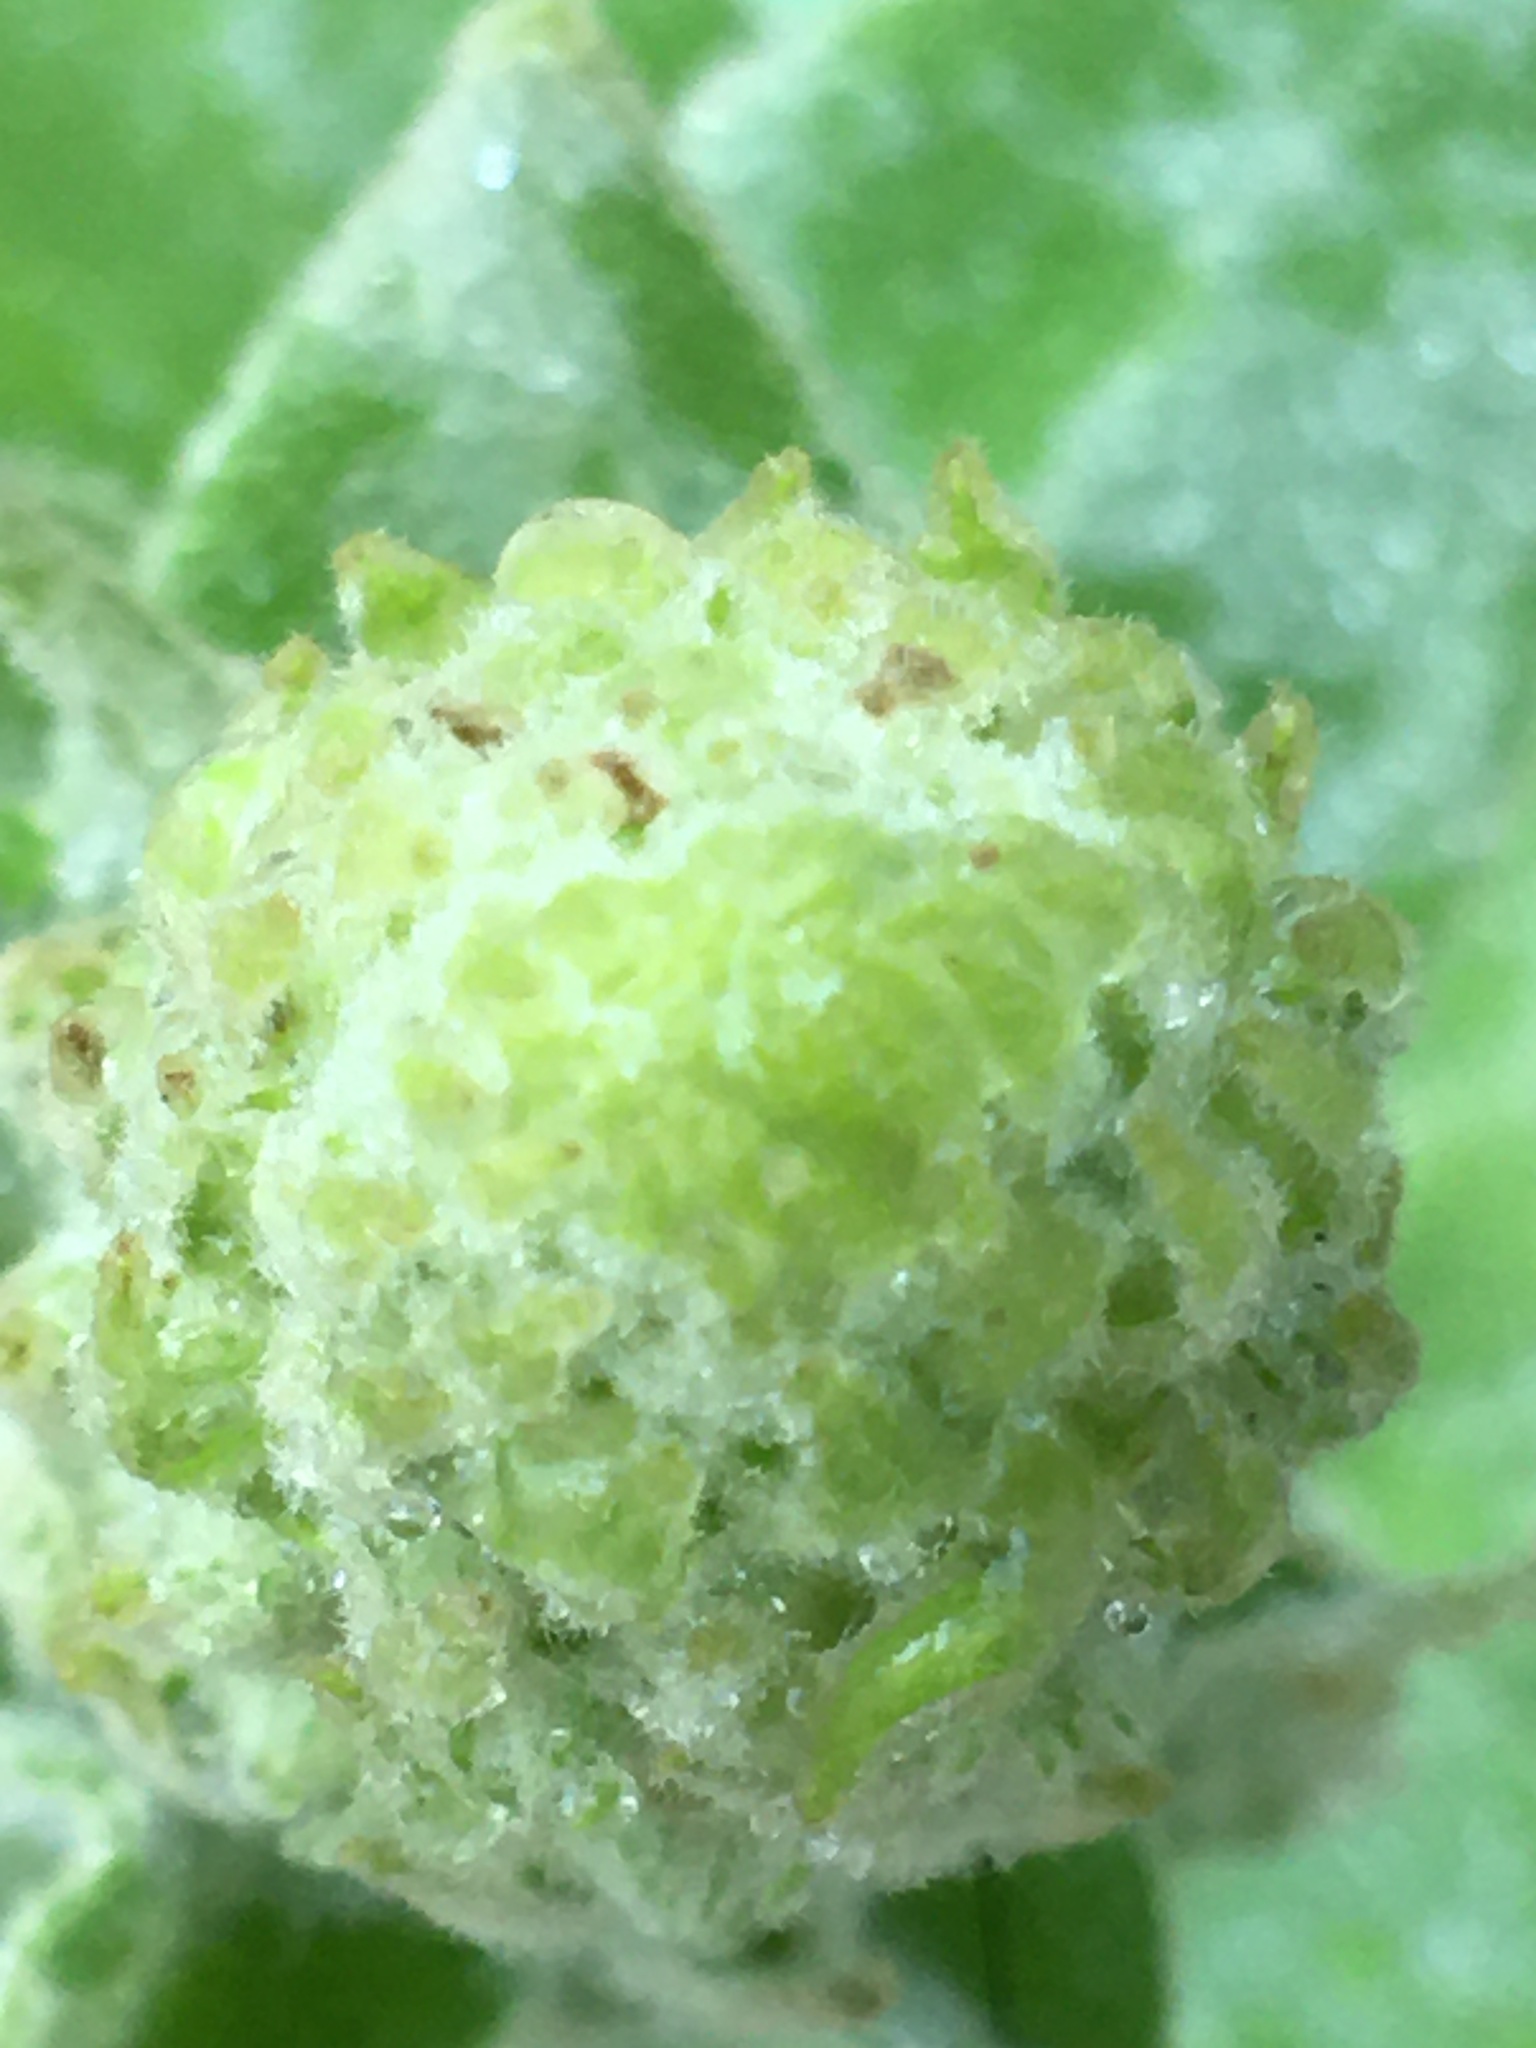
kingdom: Plantae
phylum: Tracheophyta
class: Magnoliopsida
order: Lamiales
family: Scrophulariaceae
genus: Verbascum
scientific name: Verbascum thapsus
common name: Common mullein
